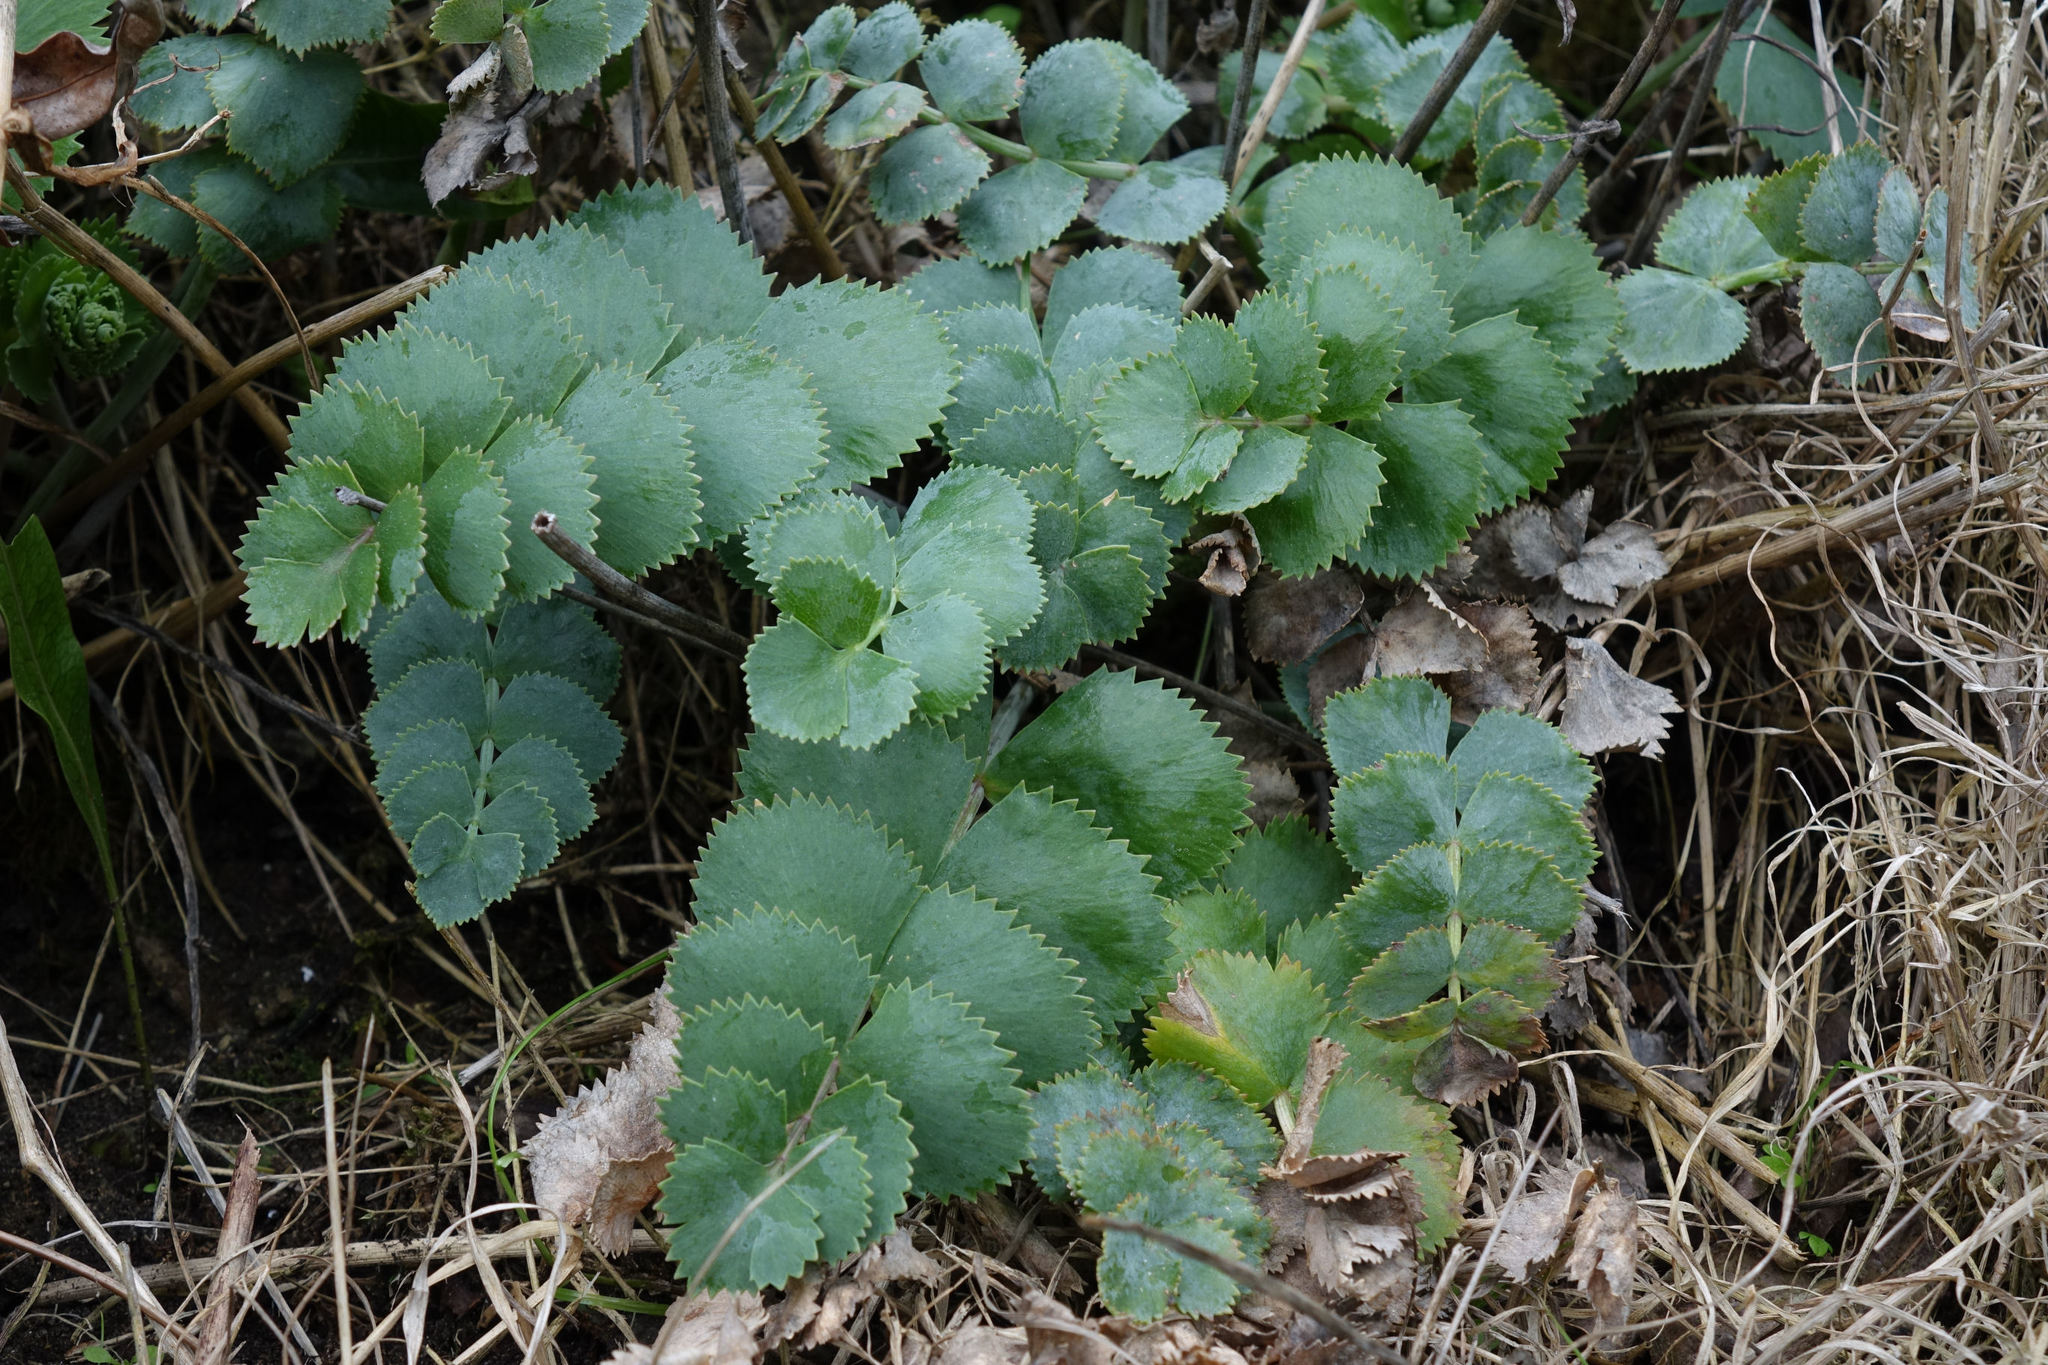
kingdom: Plantae
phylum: Tracheophyta
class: Magnoliopsida
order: Apiales
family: Apiaceae
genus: Gingidia
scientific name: Gingidia grisea
